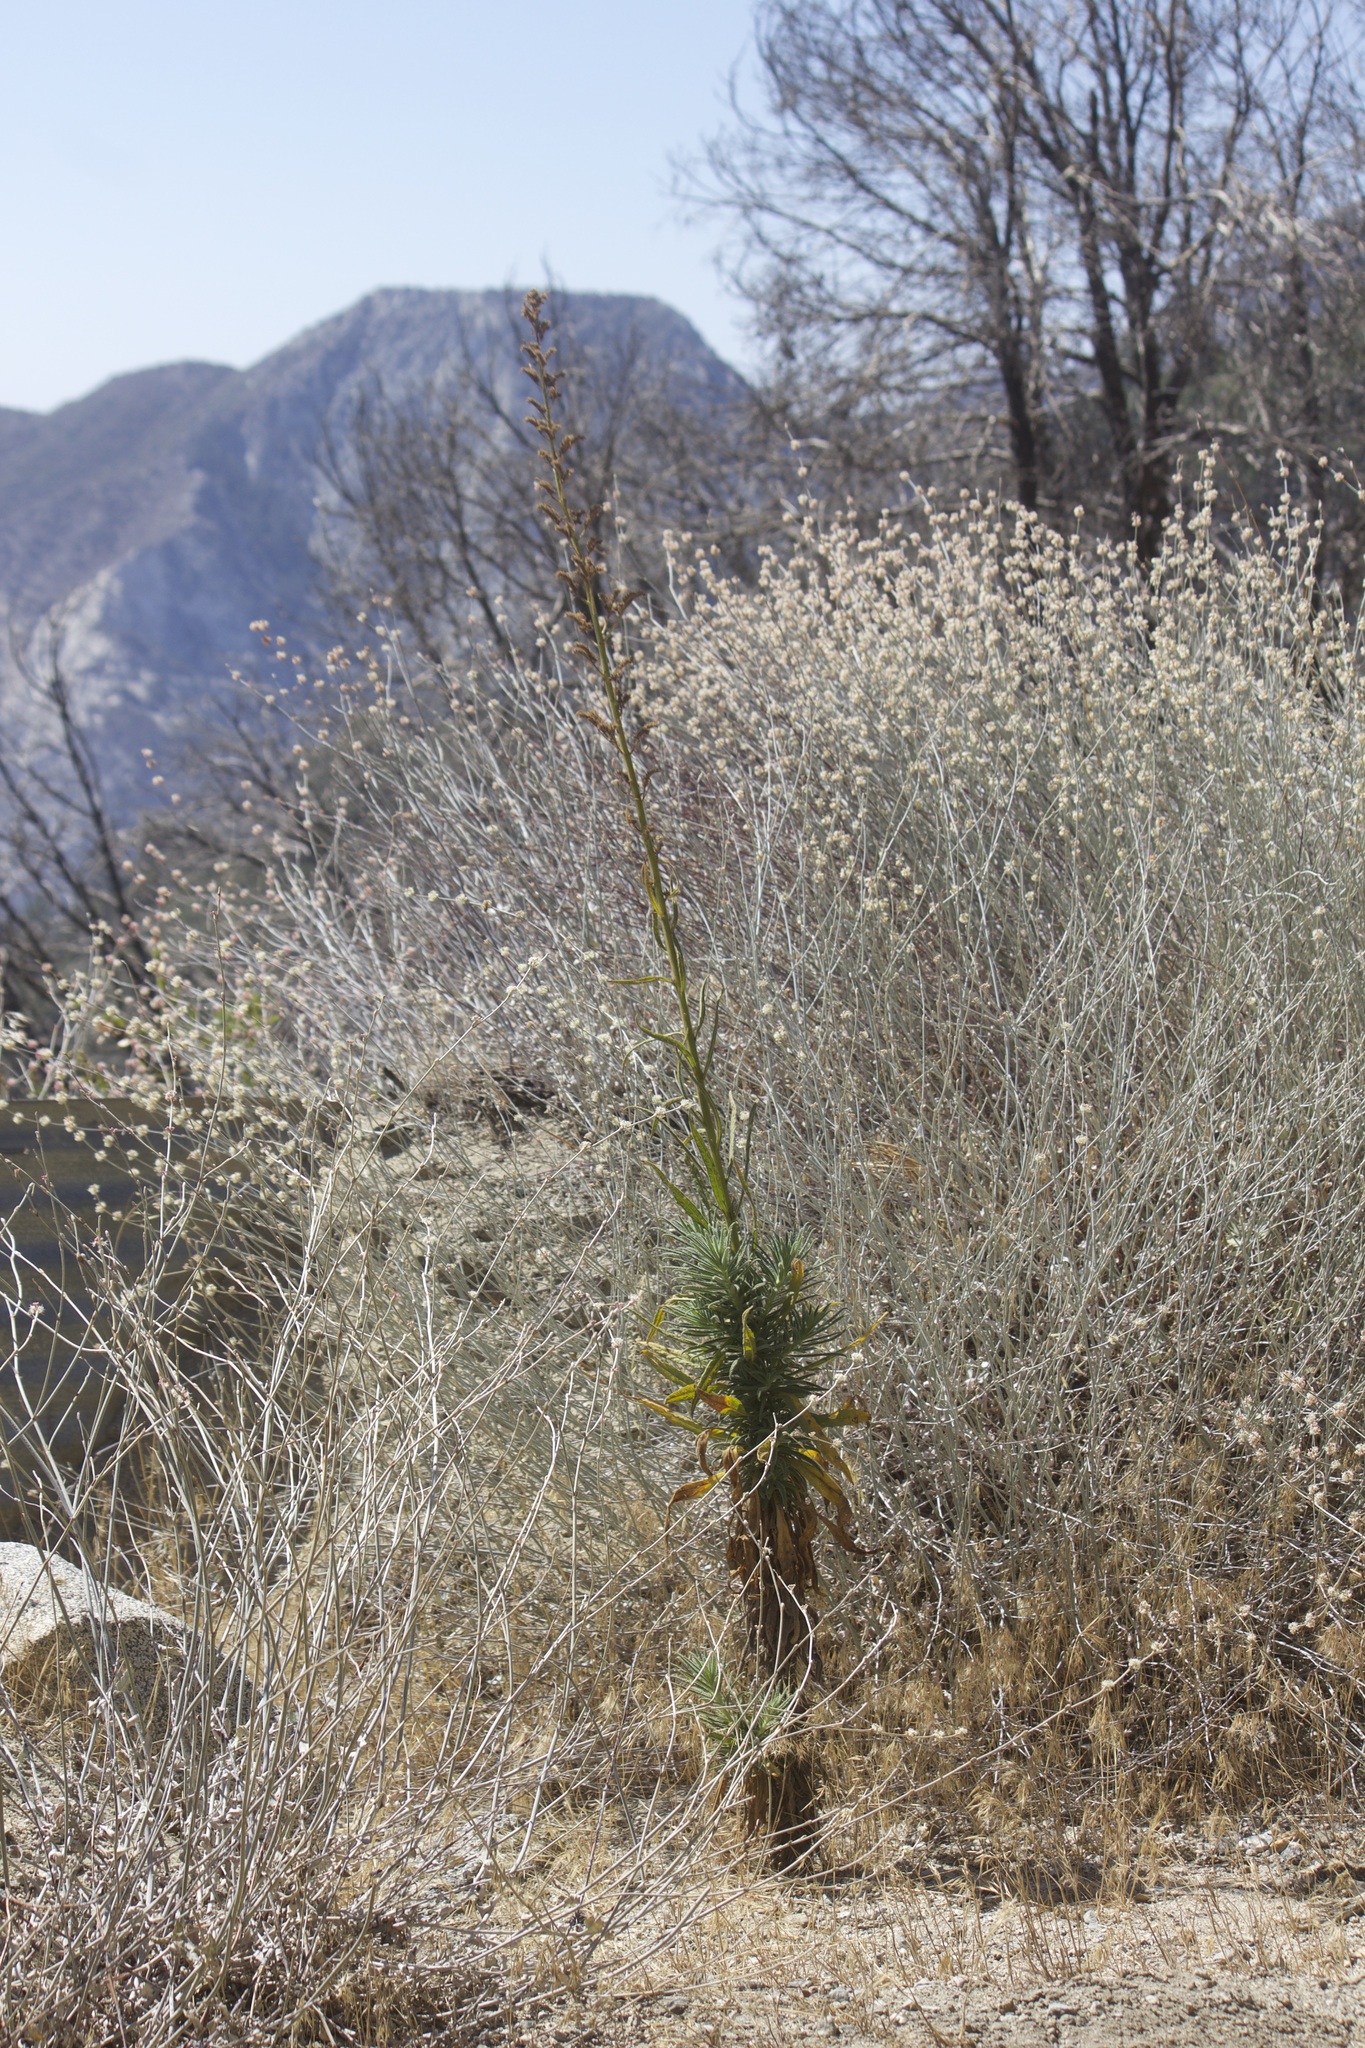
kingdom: Plantae
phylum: Tracheophyta
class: Magnoliopsida
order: Boraginales
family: Namaceae
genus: Turricula
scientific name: Turricula parryi
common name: Poodle-dog-bush
